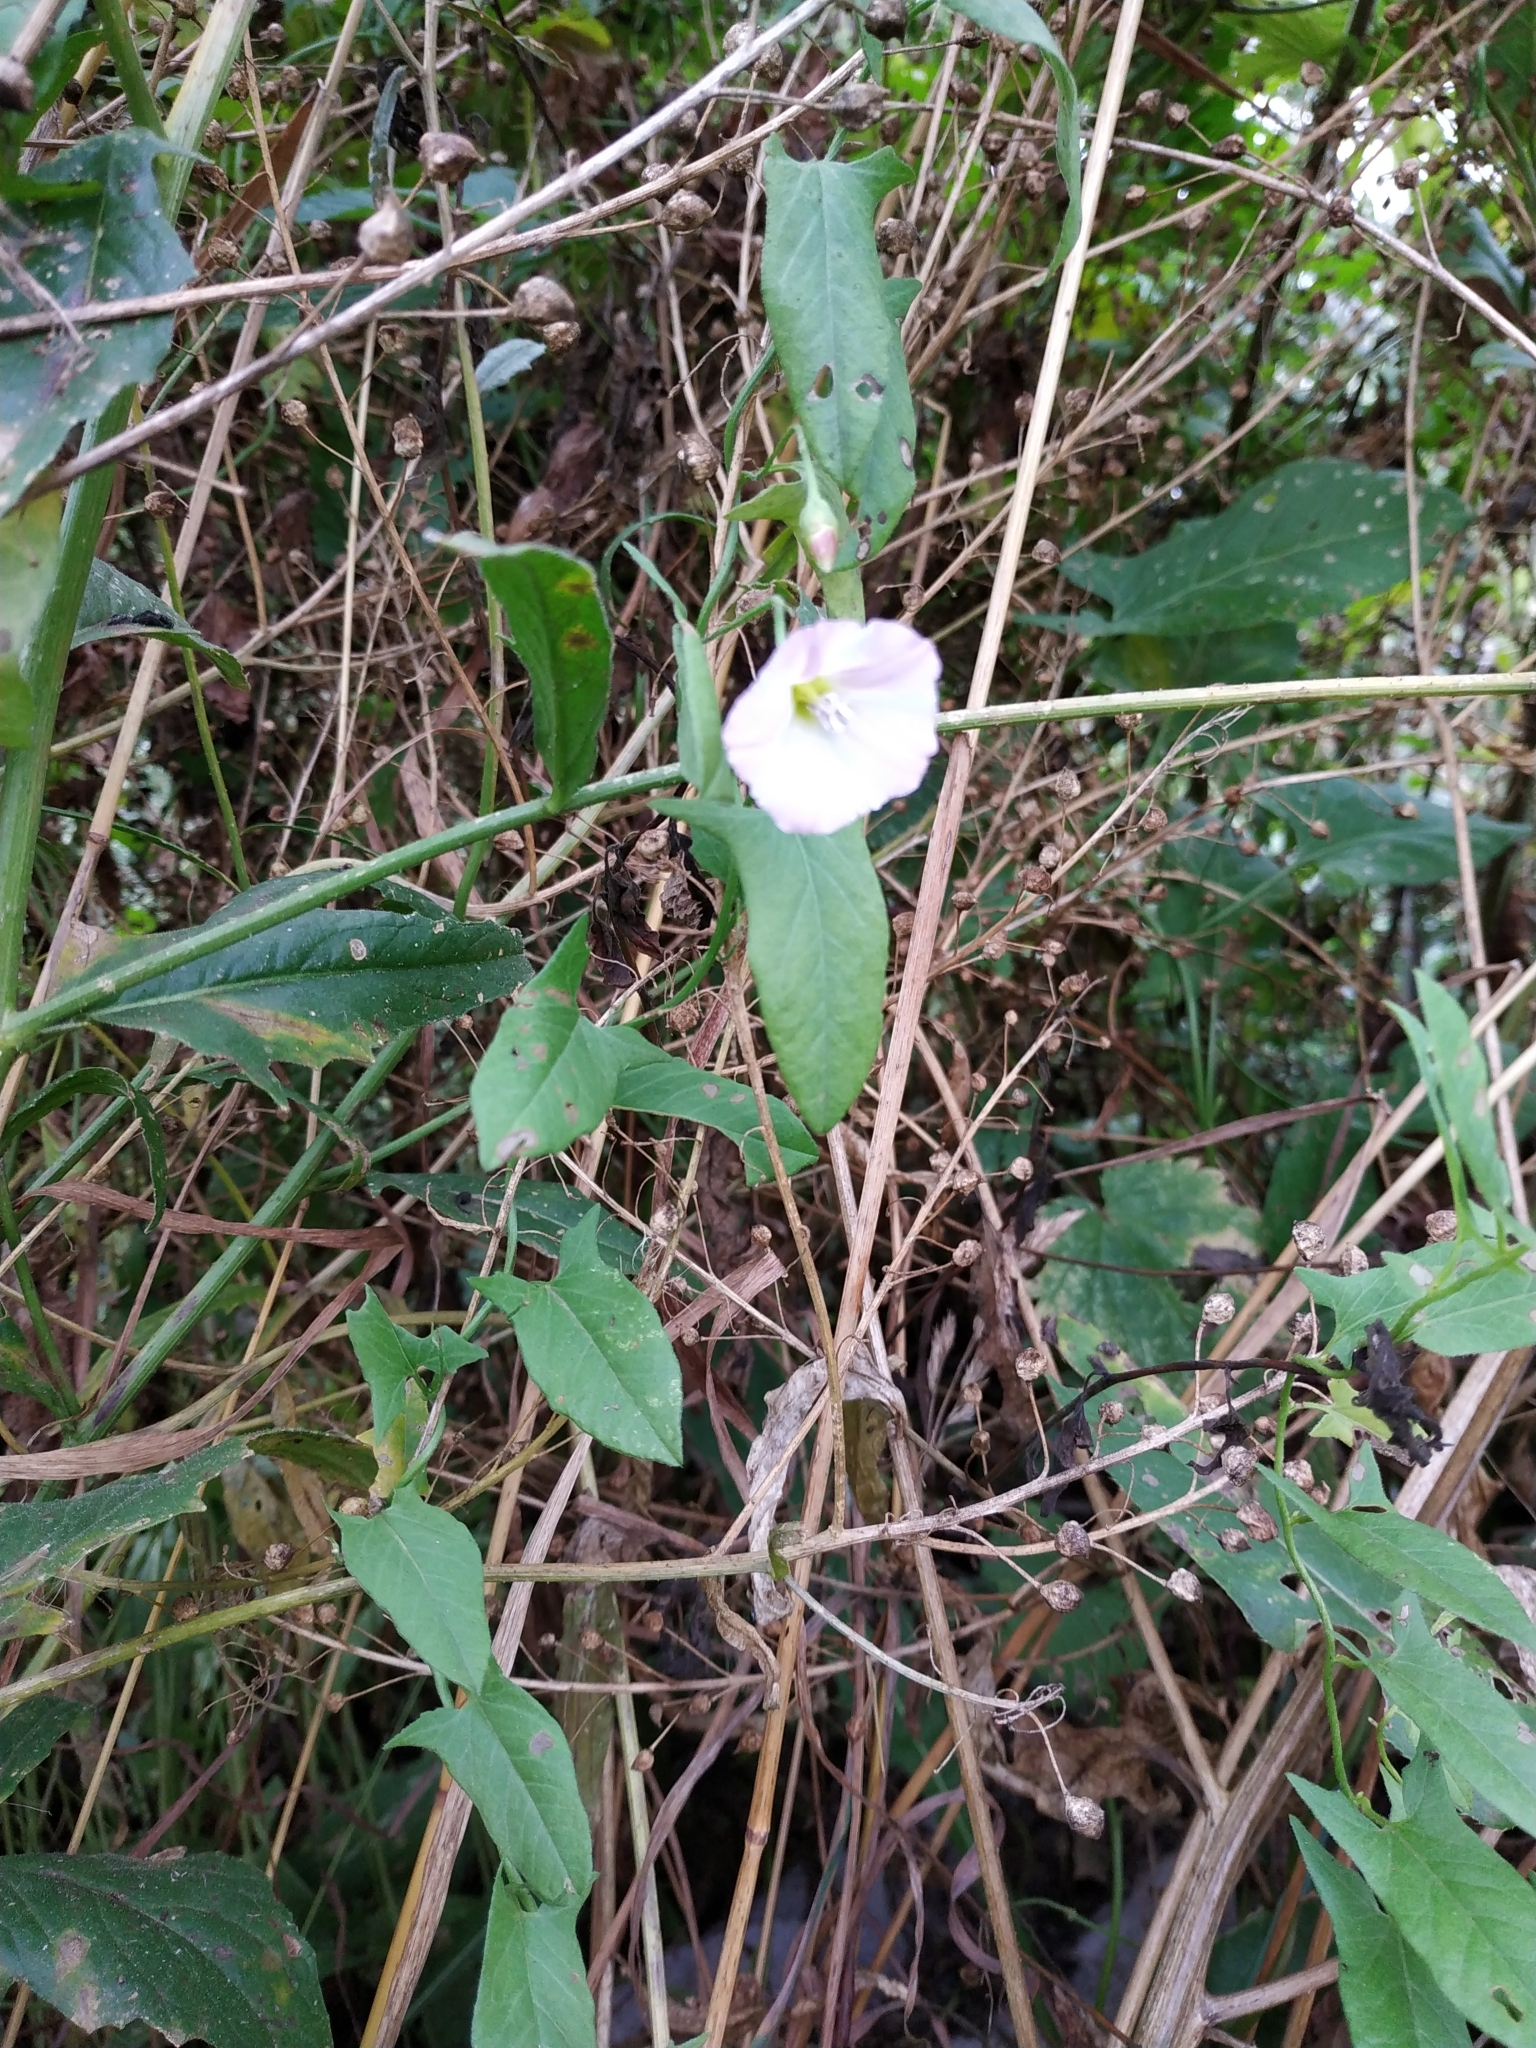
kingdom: Plantae
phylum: Tracheophyta
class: Magnoliopsida
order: Solanales
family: Convolvulaceae
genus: Convolvulus
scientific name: Convolvulus arvensis
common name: Field bindweed
